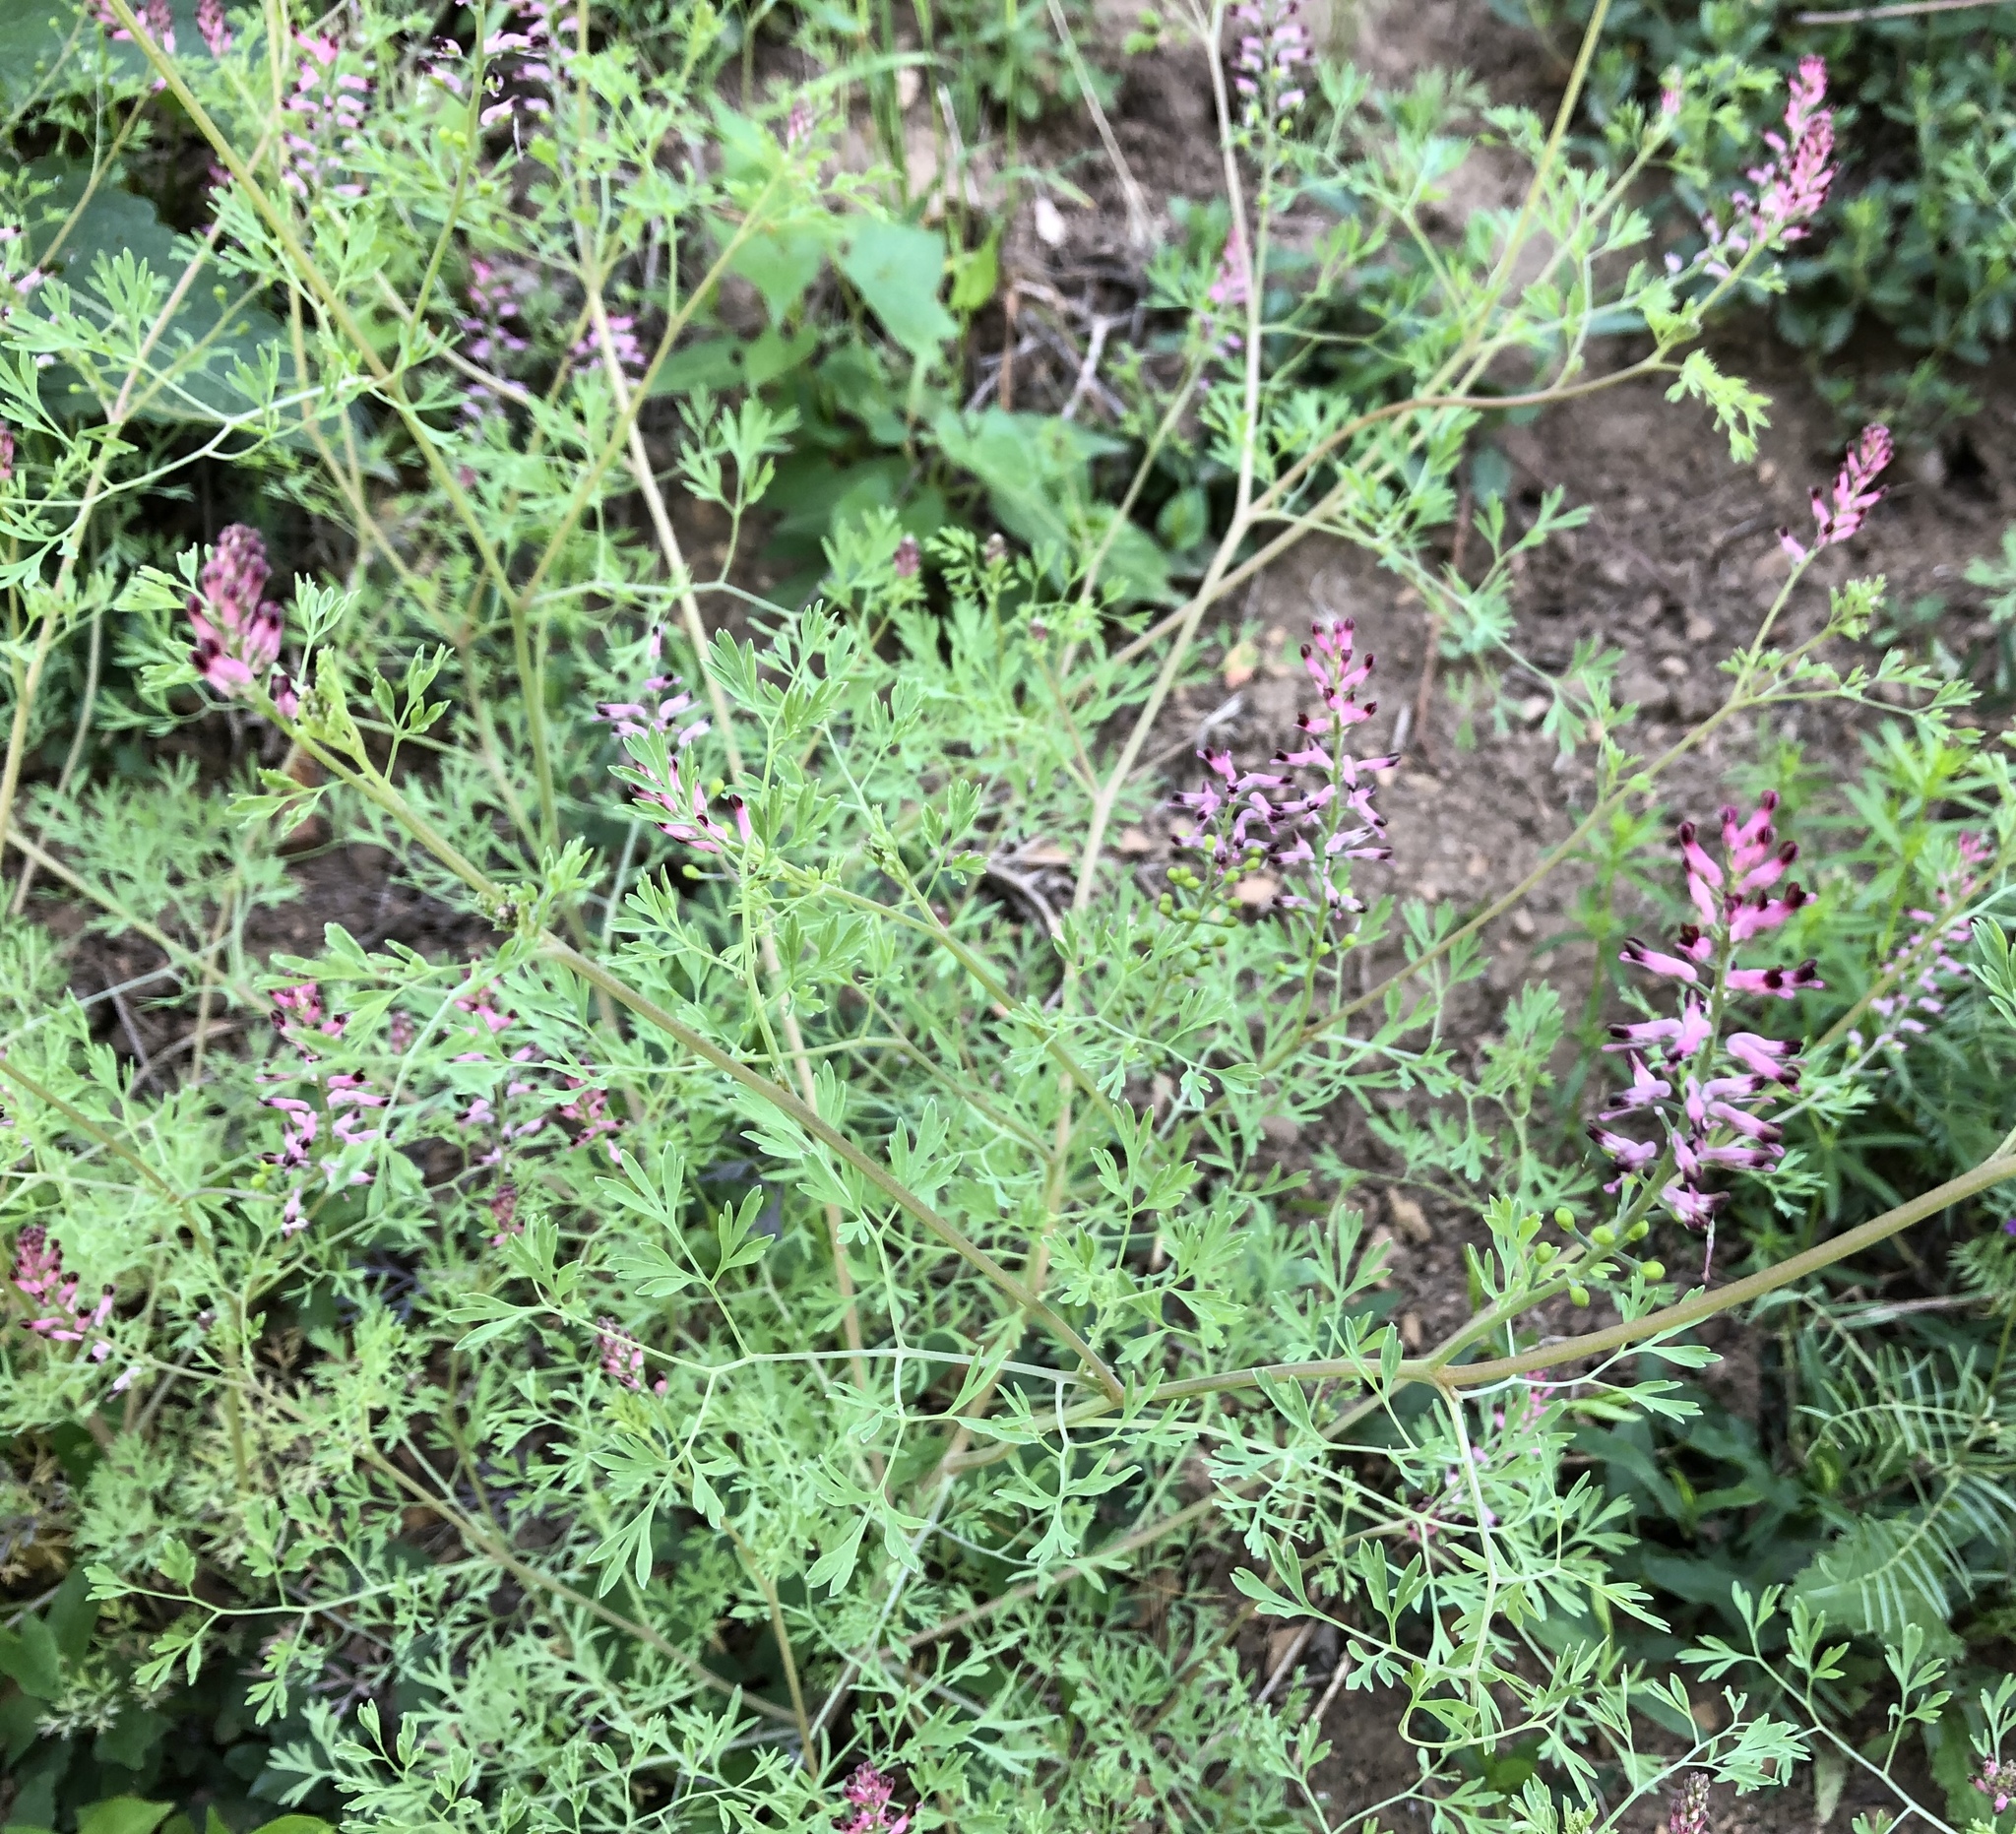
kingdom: Plantae
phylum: Tracheophyta
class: Magnoliopsida
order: Ranunculales
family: Papaveraceae
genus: Fumaria
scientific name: Fumaria officinalis
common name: Common fumitory
